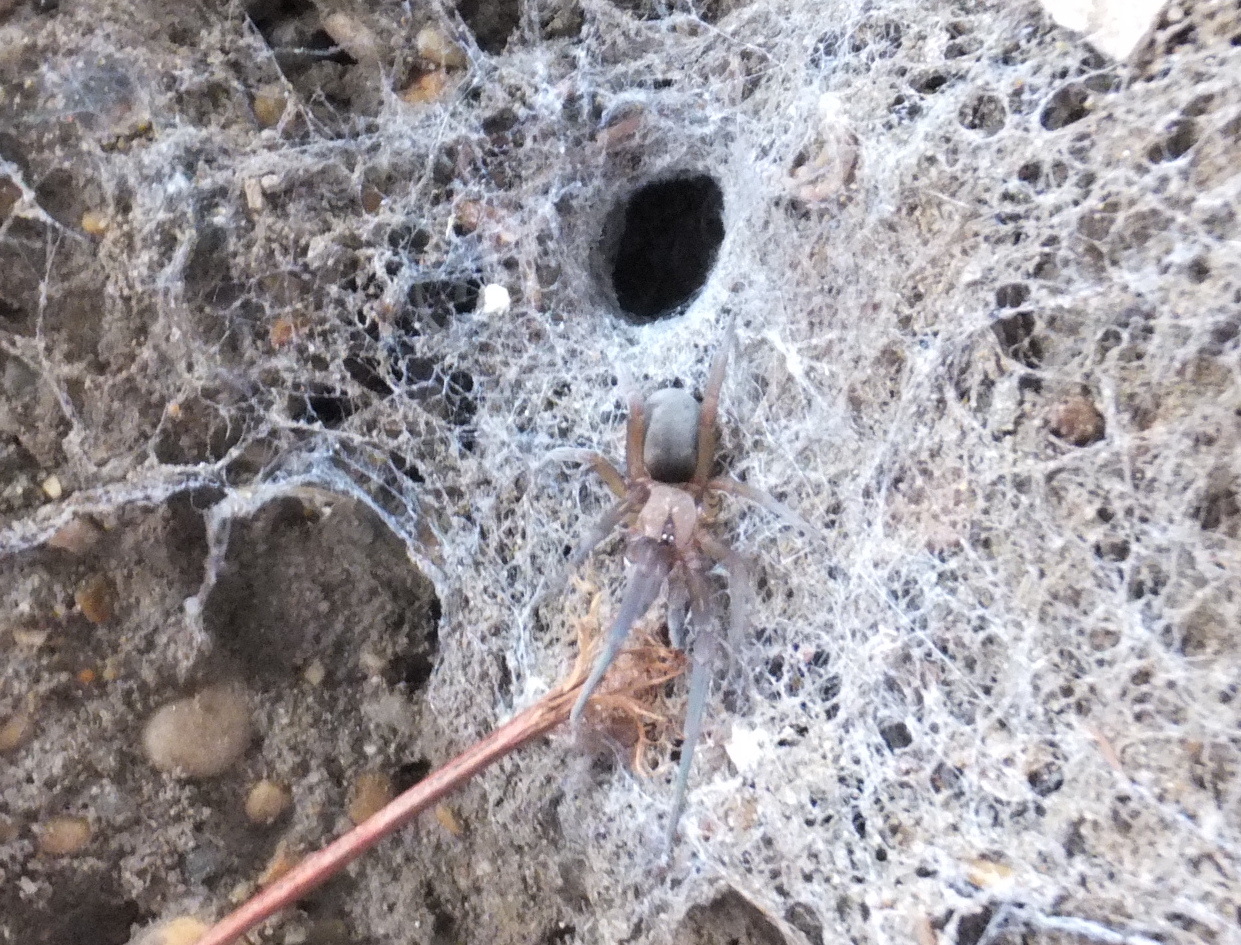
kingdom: Animalia
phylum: Arthropoda
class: Arachnida
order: Araneae
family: Filistatidae
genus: Filistata
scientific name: Filistata insidiatrix
